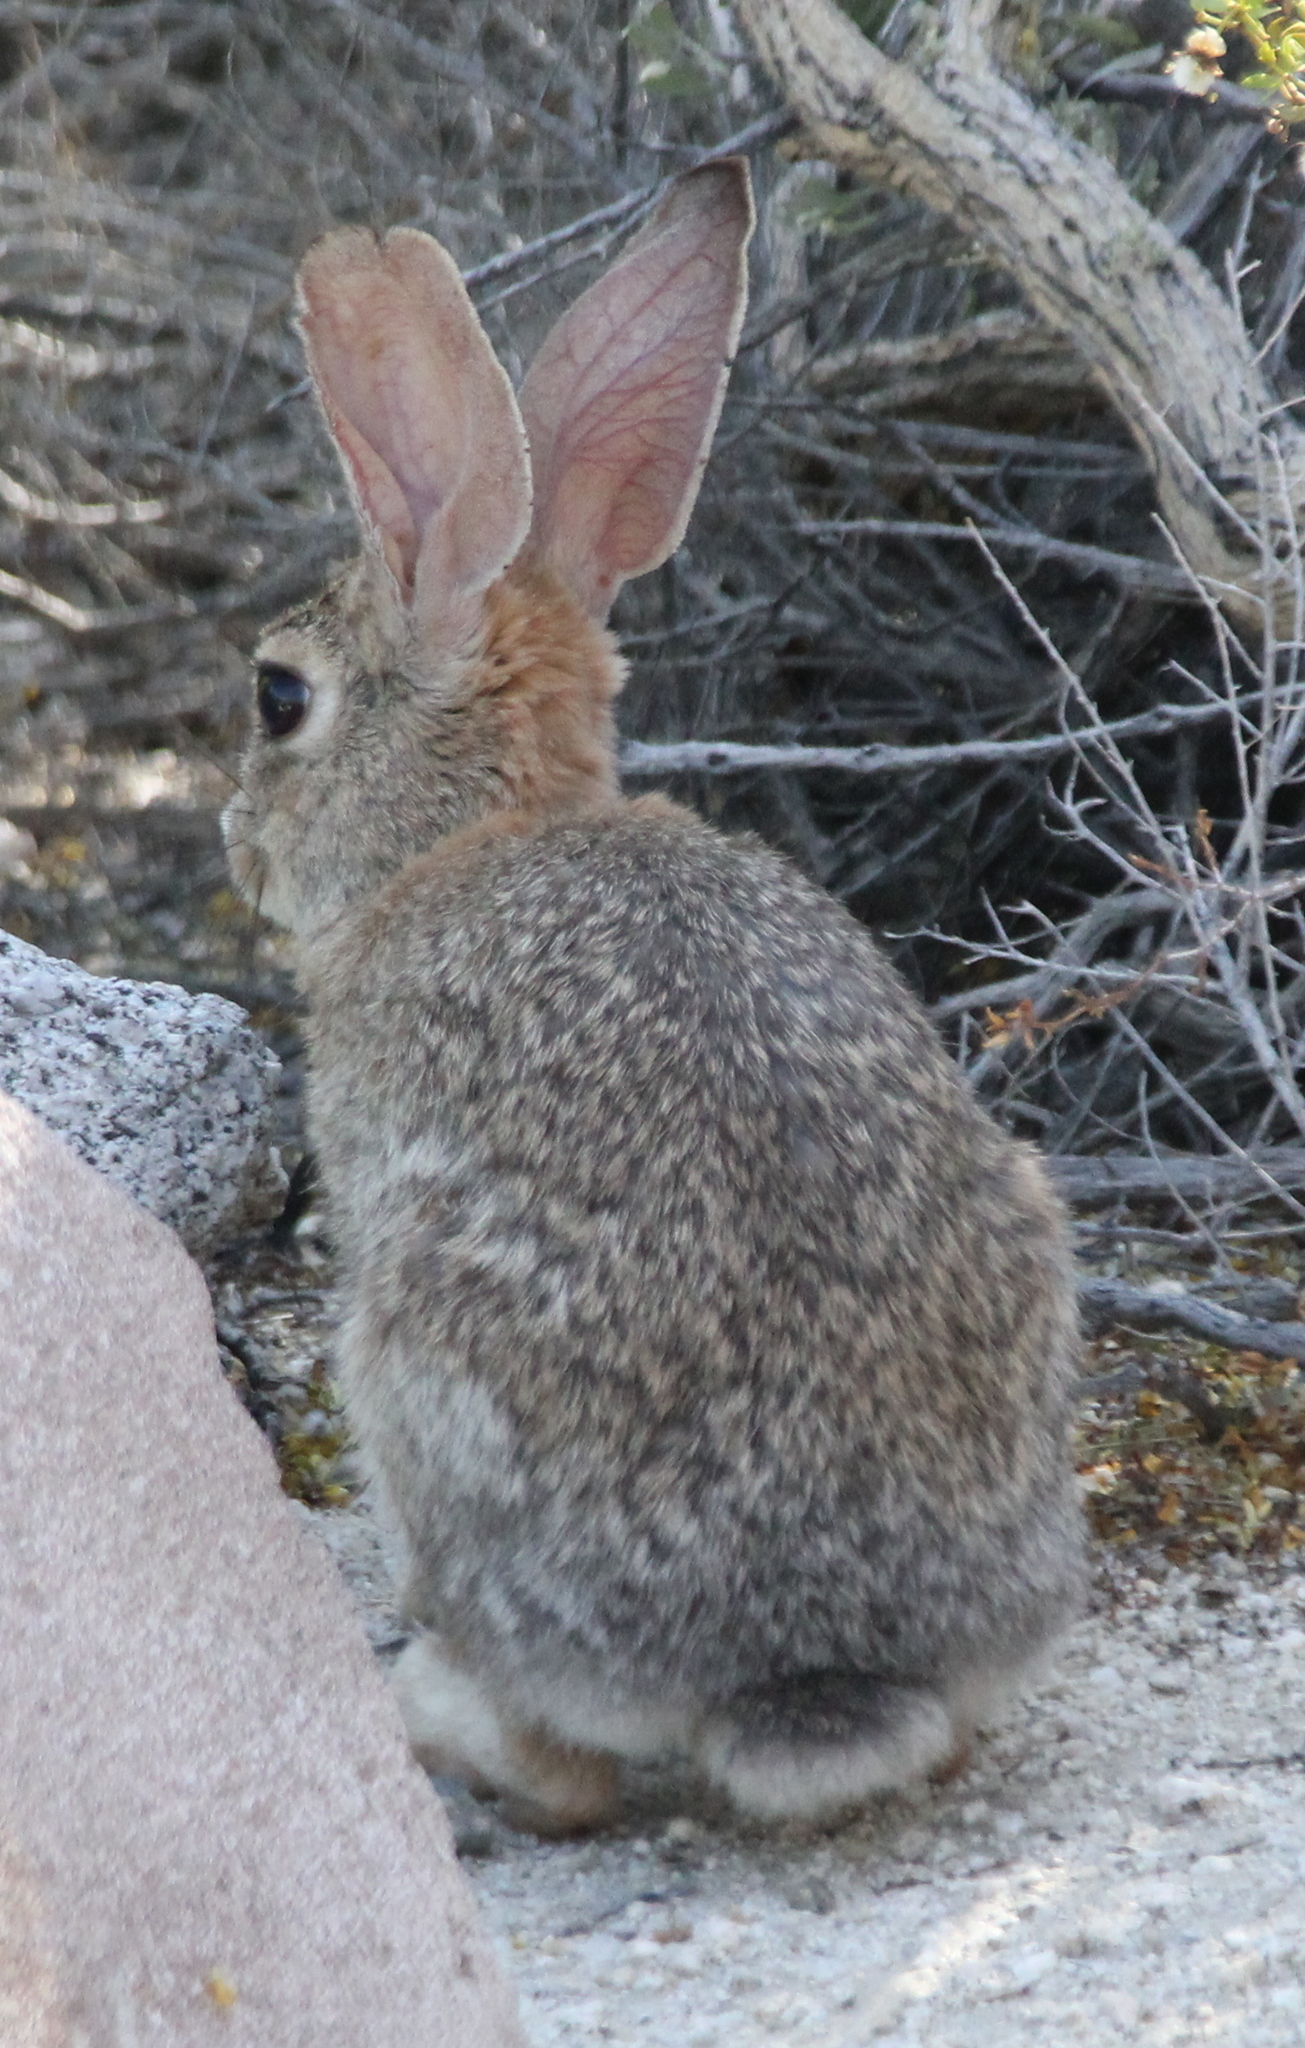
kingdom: Animalia
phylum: Chordata
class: Mammalia
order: Lagomorpha
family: Leporidae
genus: Sylvilagus
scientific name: Sylvilagus audubonii
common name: Desert cottontail
